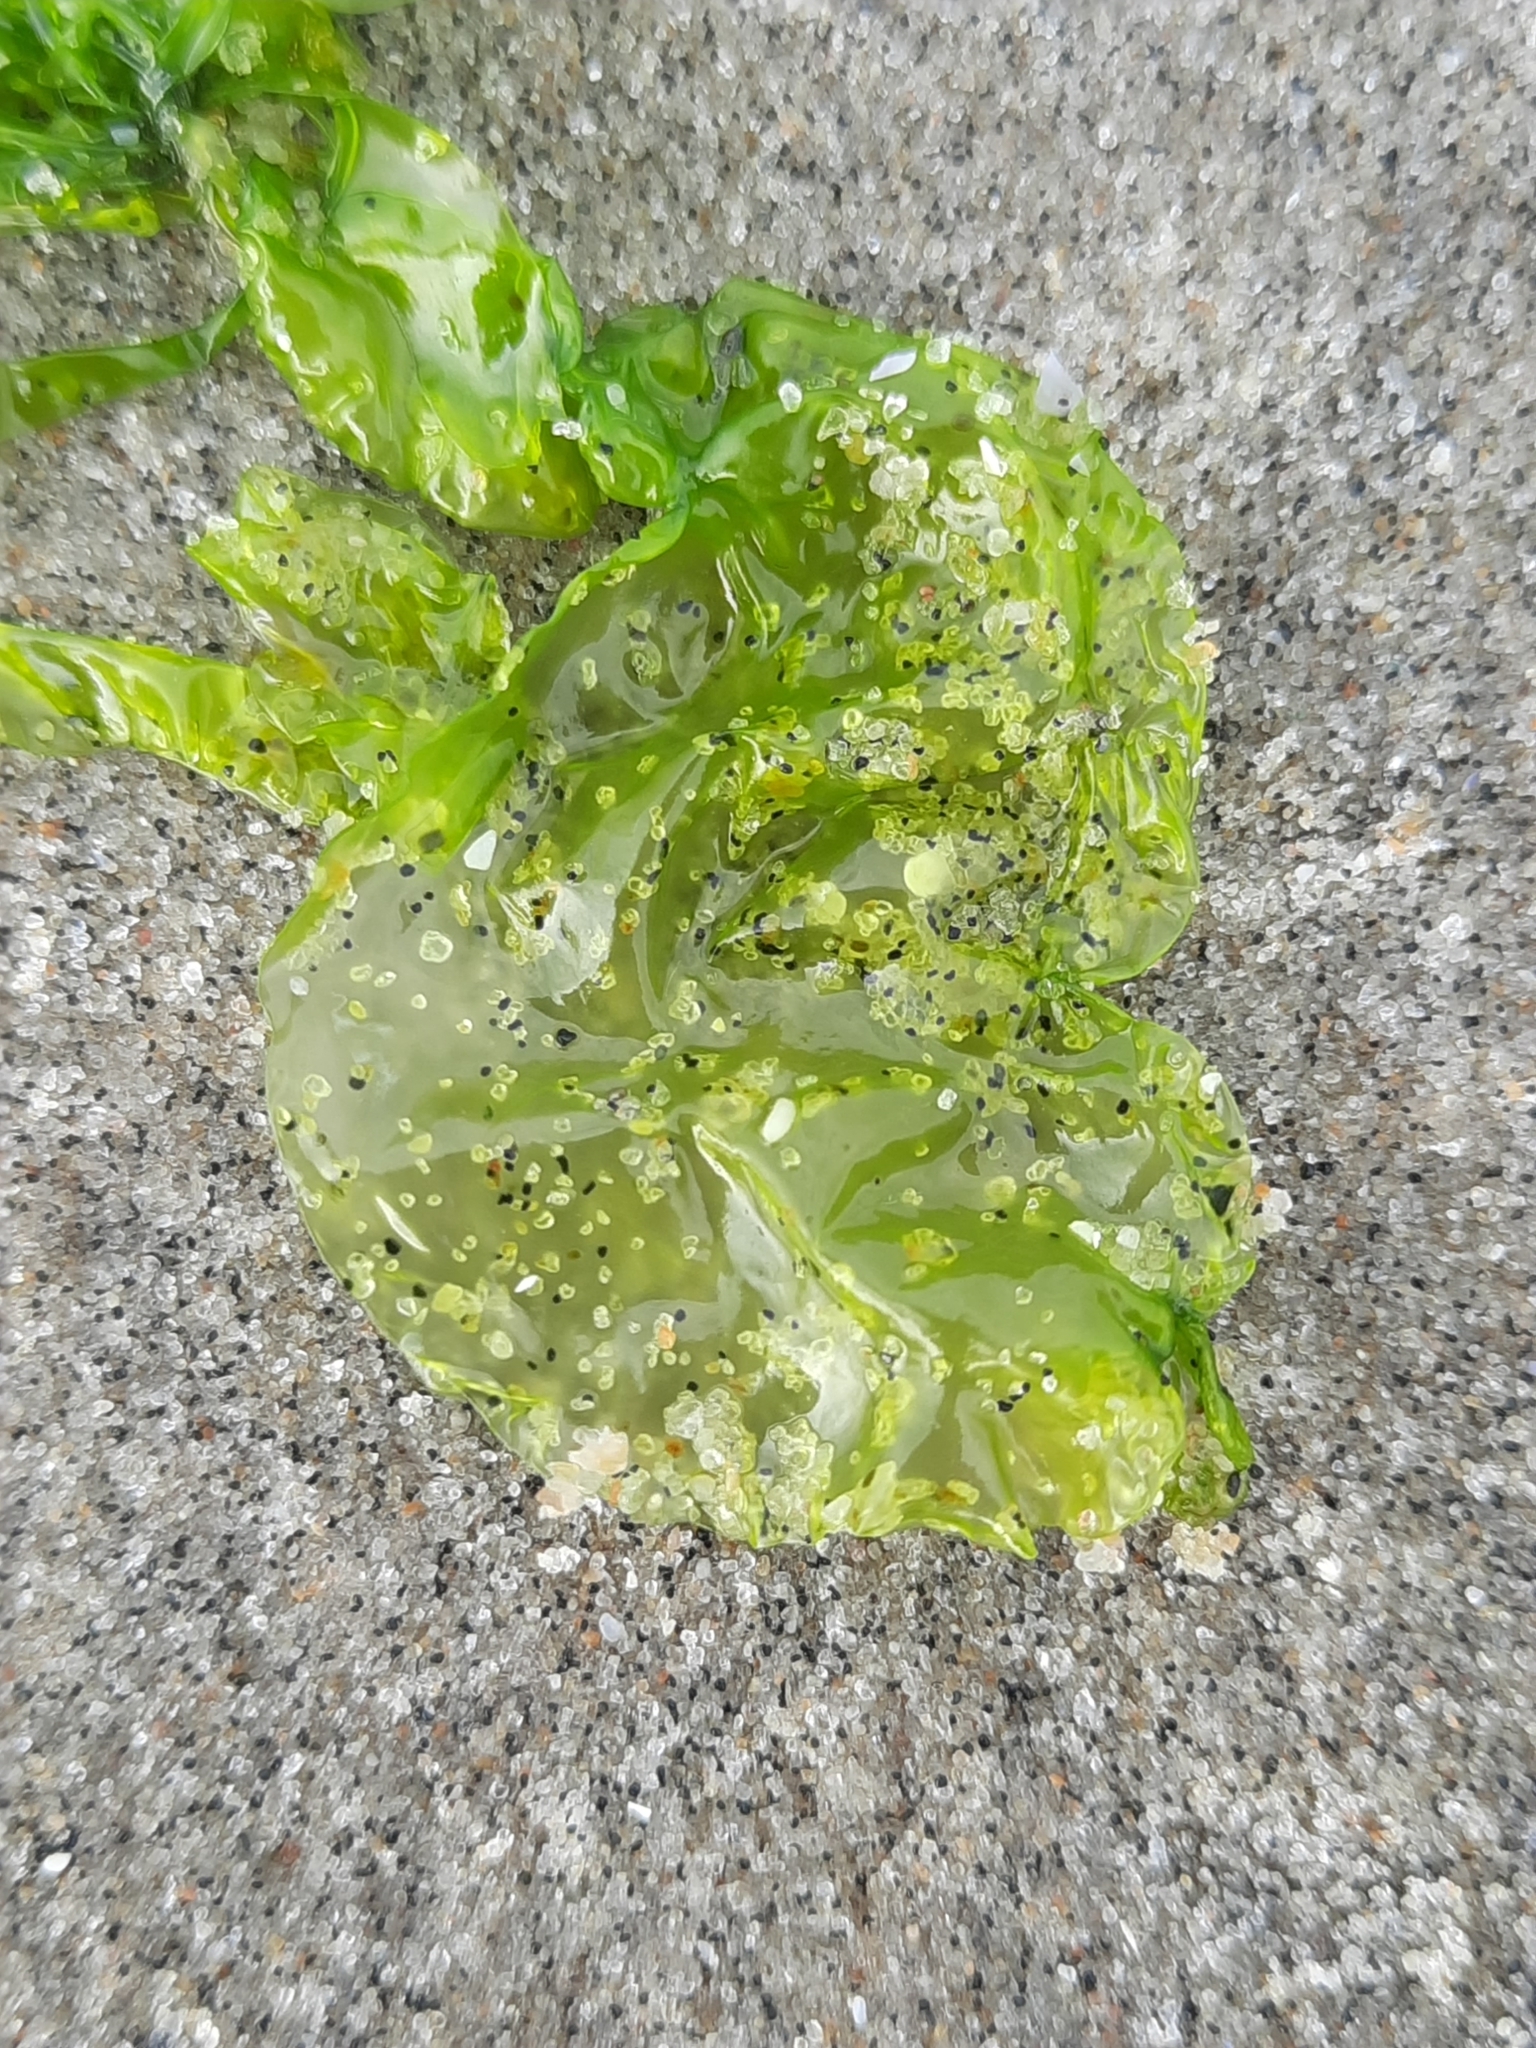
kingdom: Plantae
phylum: Chlorophyta
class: Ulvophyceae
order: Ulvales
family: Ulvaceae
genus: Ulva
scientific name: Ulva lactuca
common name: Sea lettuce
